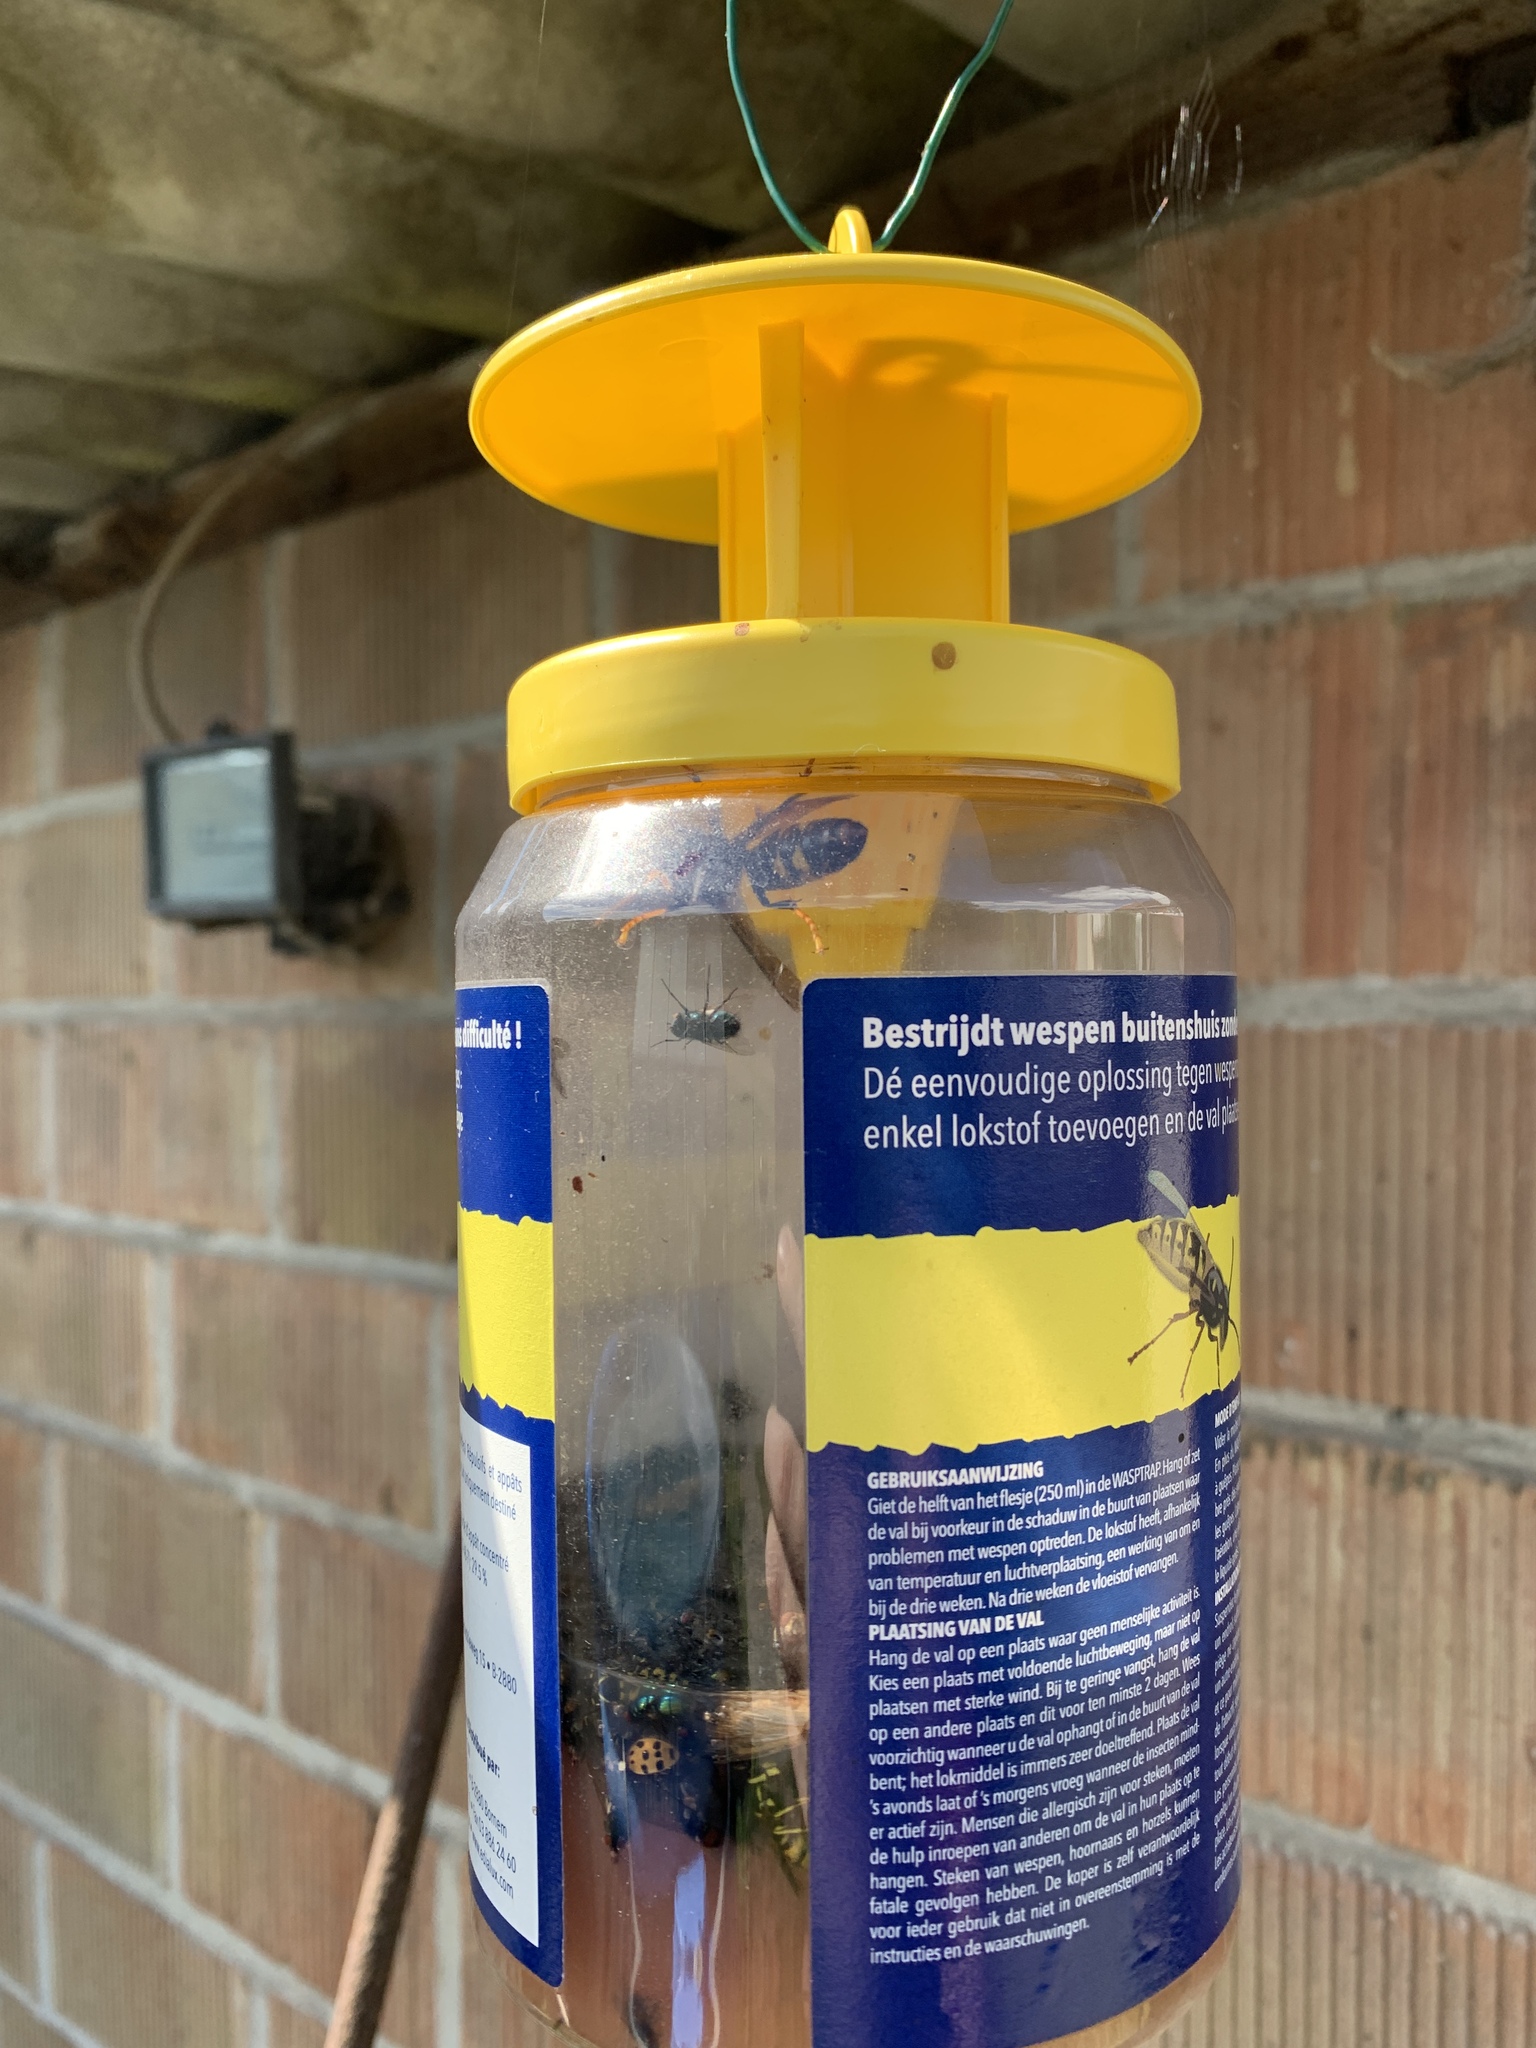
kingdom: Animalia
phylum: Arthropoda
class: Insecta
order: Hymenoptera
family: Vespidae
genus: Vespa
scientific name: Vespa velutina
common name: Asian hornet
